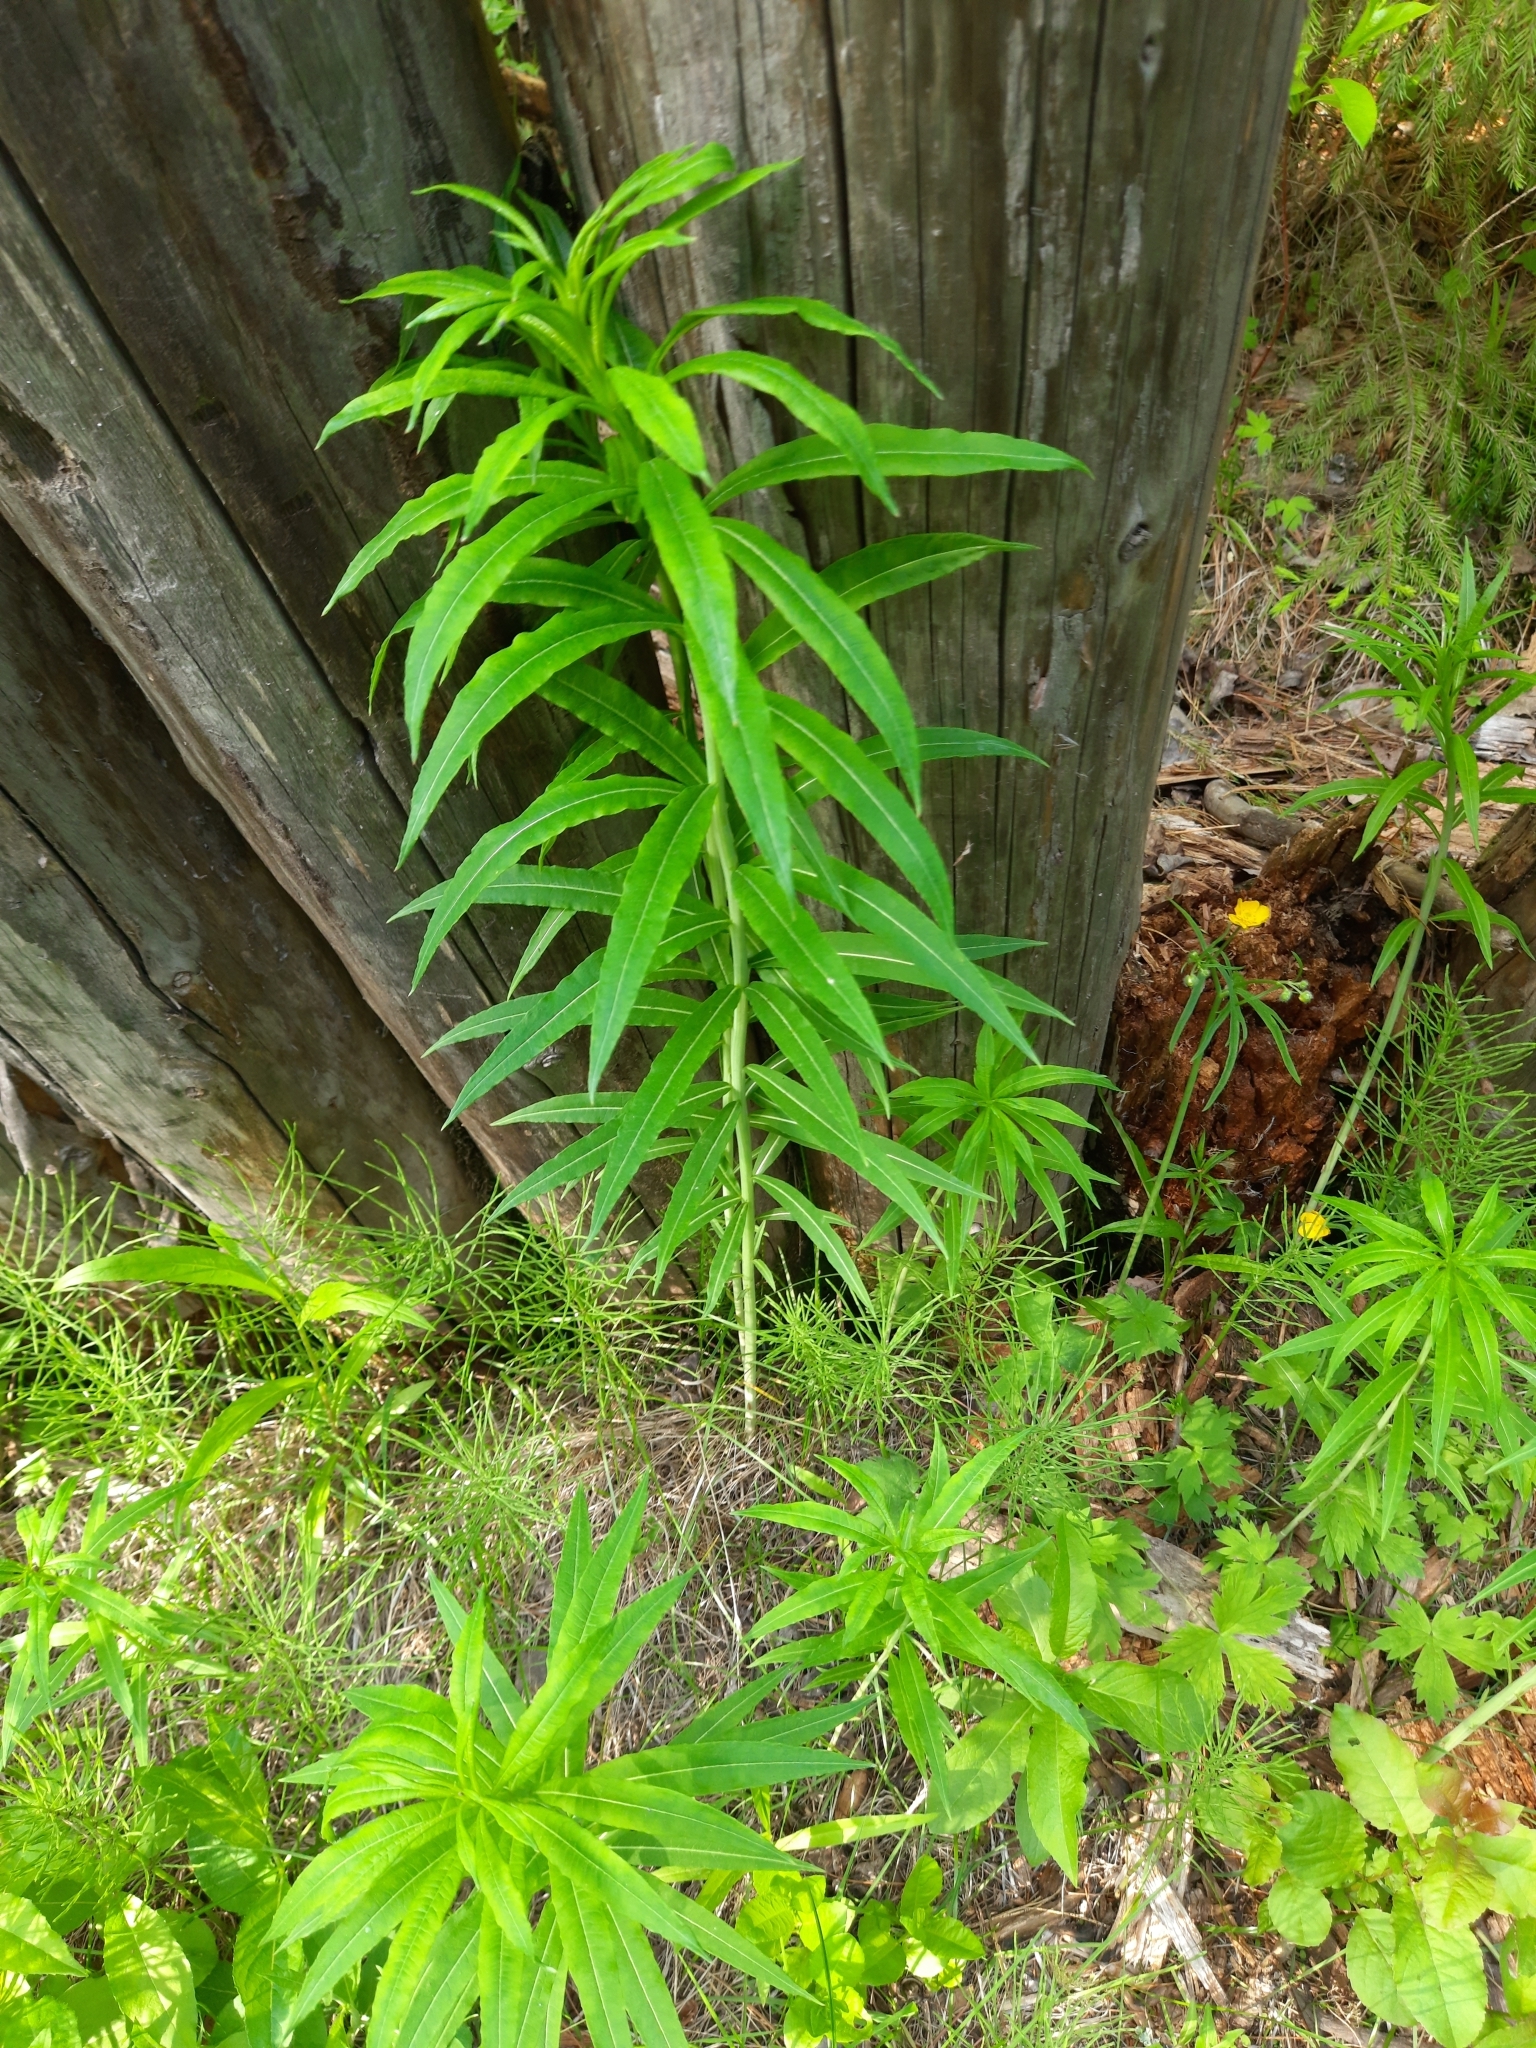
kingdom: Plantae
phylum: Tracheophyta
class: Magnoliopsida
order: Myrtales
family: Onagraceae
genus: Chamaenerion
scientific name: Chamaenerion angustifolium
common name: Fireweed
